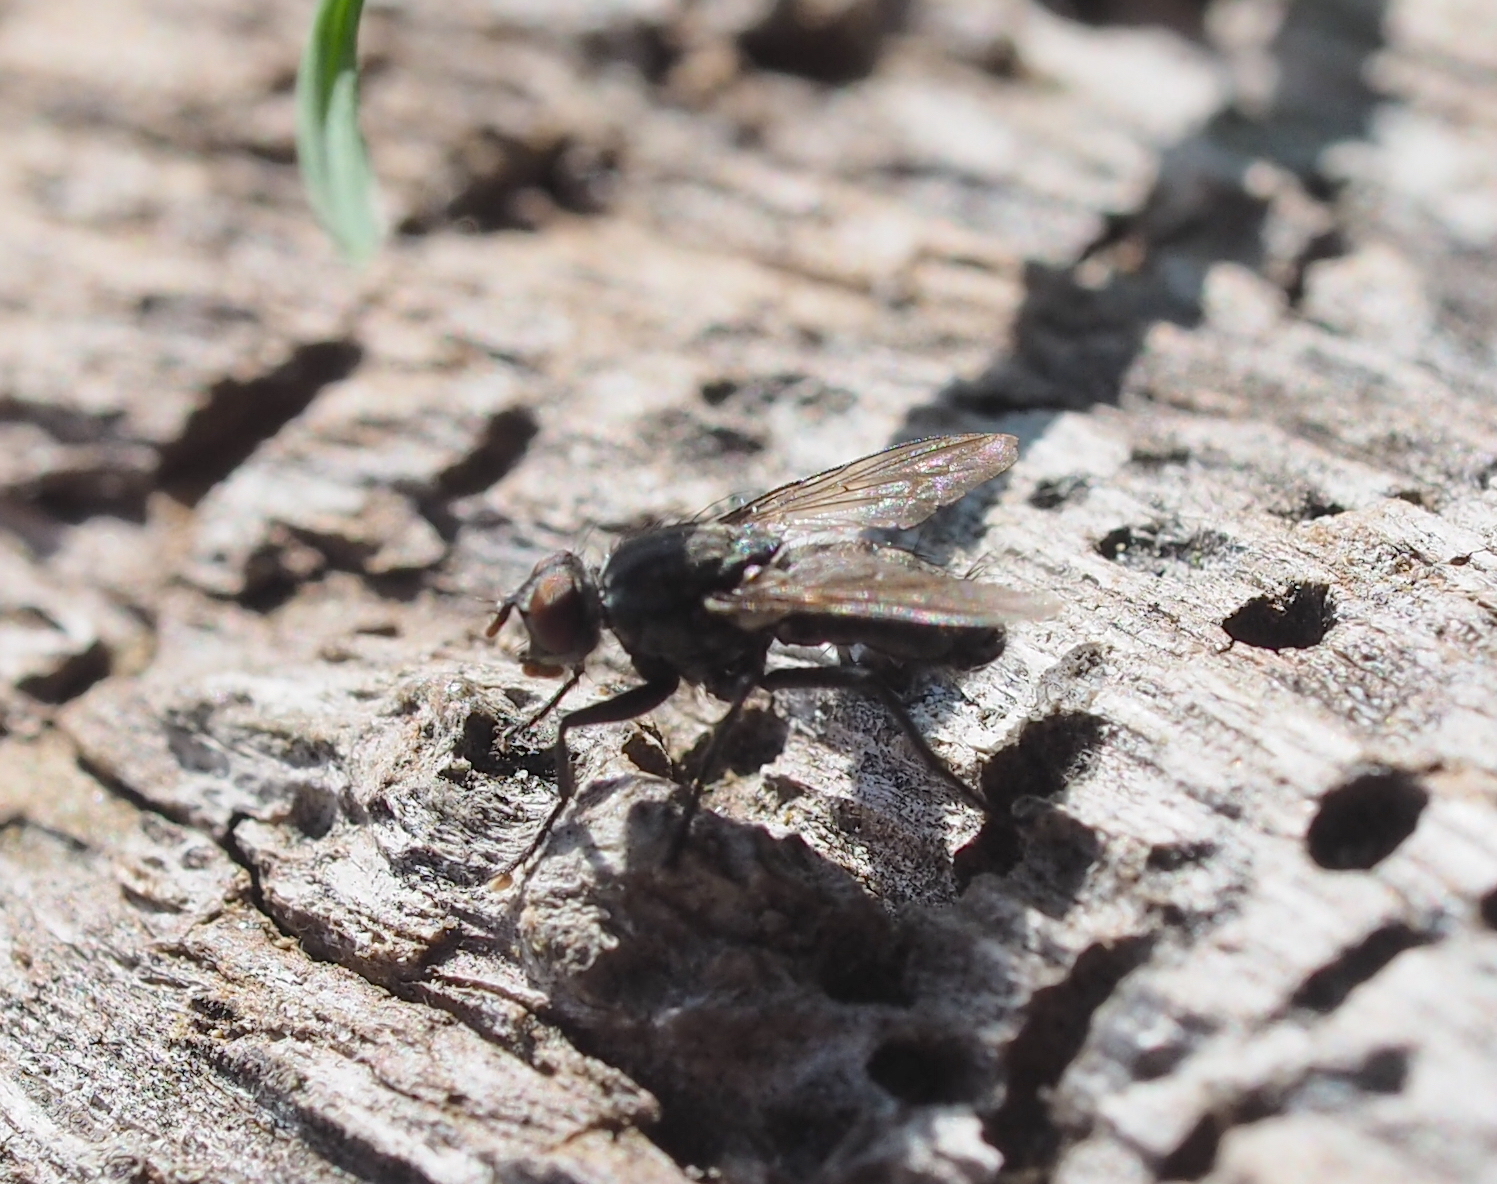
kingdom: Animalia
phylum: Arthropoda
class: Insecta
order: Diptera
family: Sarcophagidae
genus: Sarcophaga
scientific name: Sarcophaga aratrix
